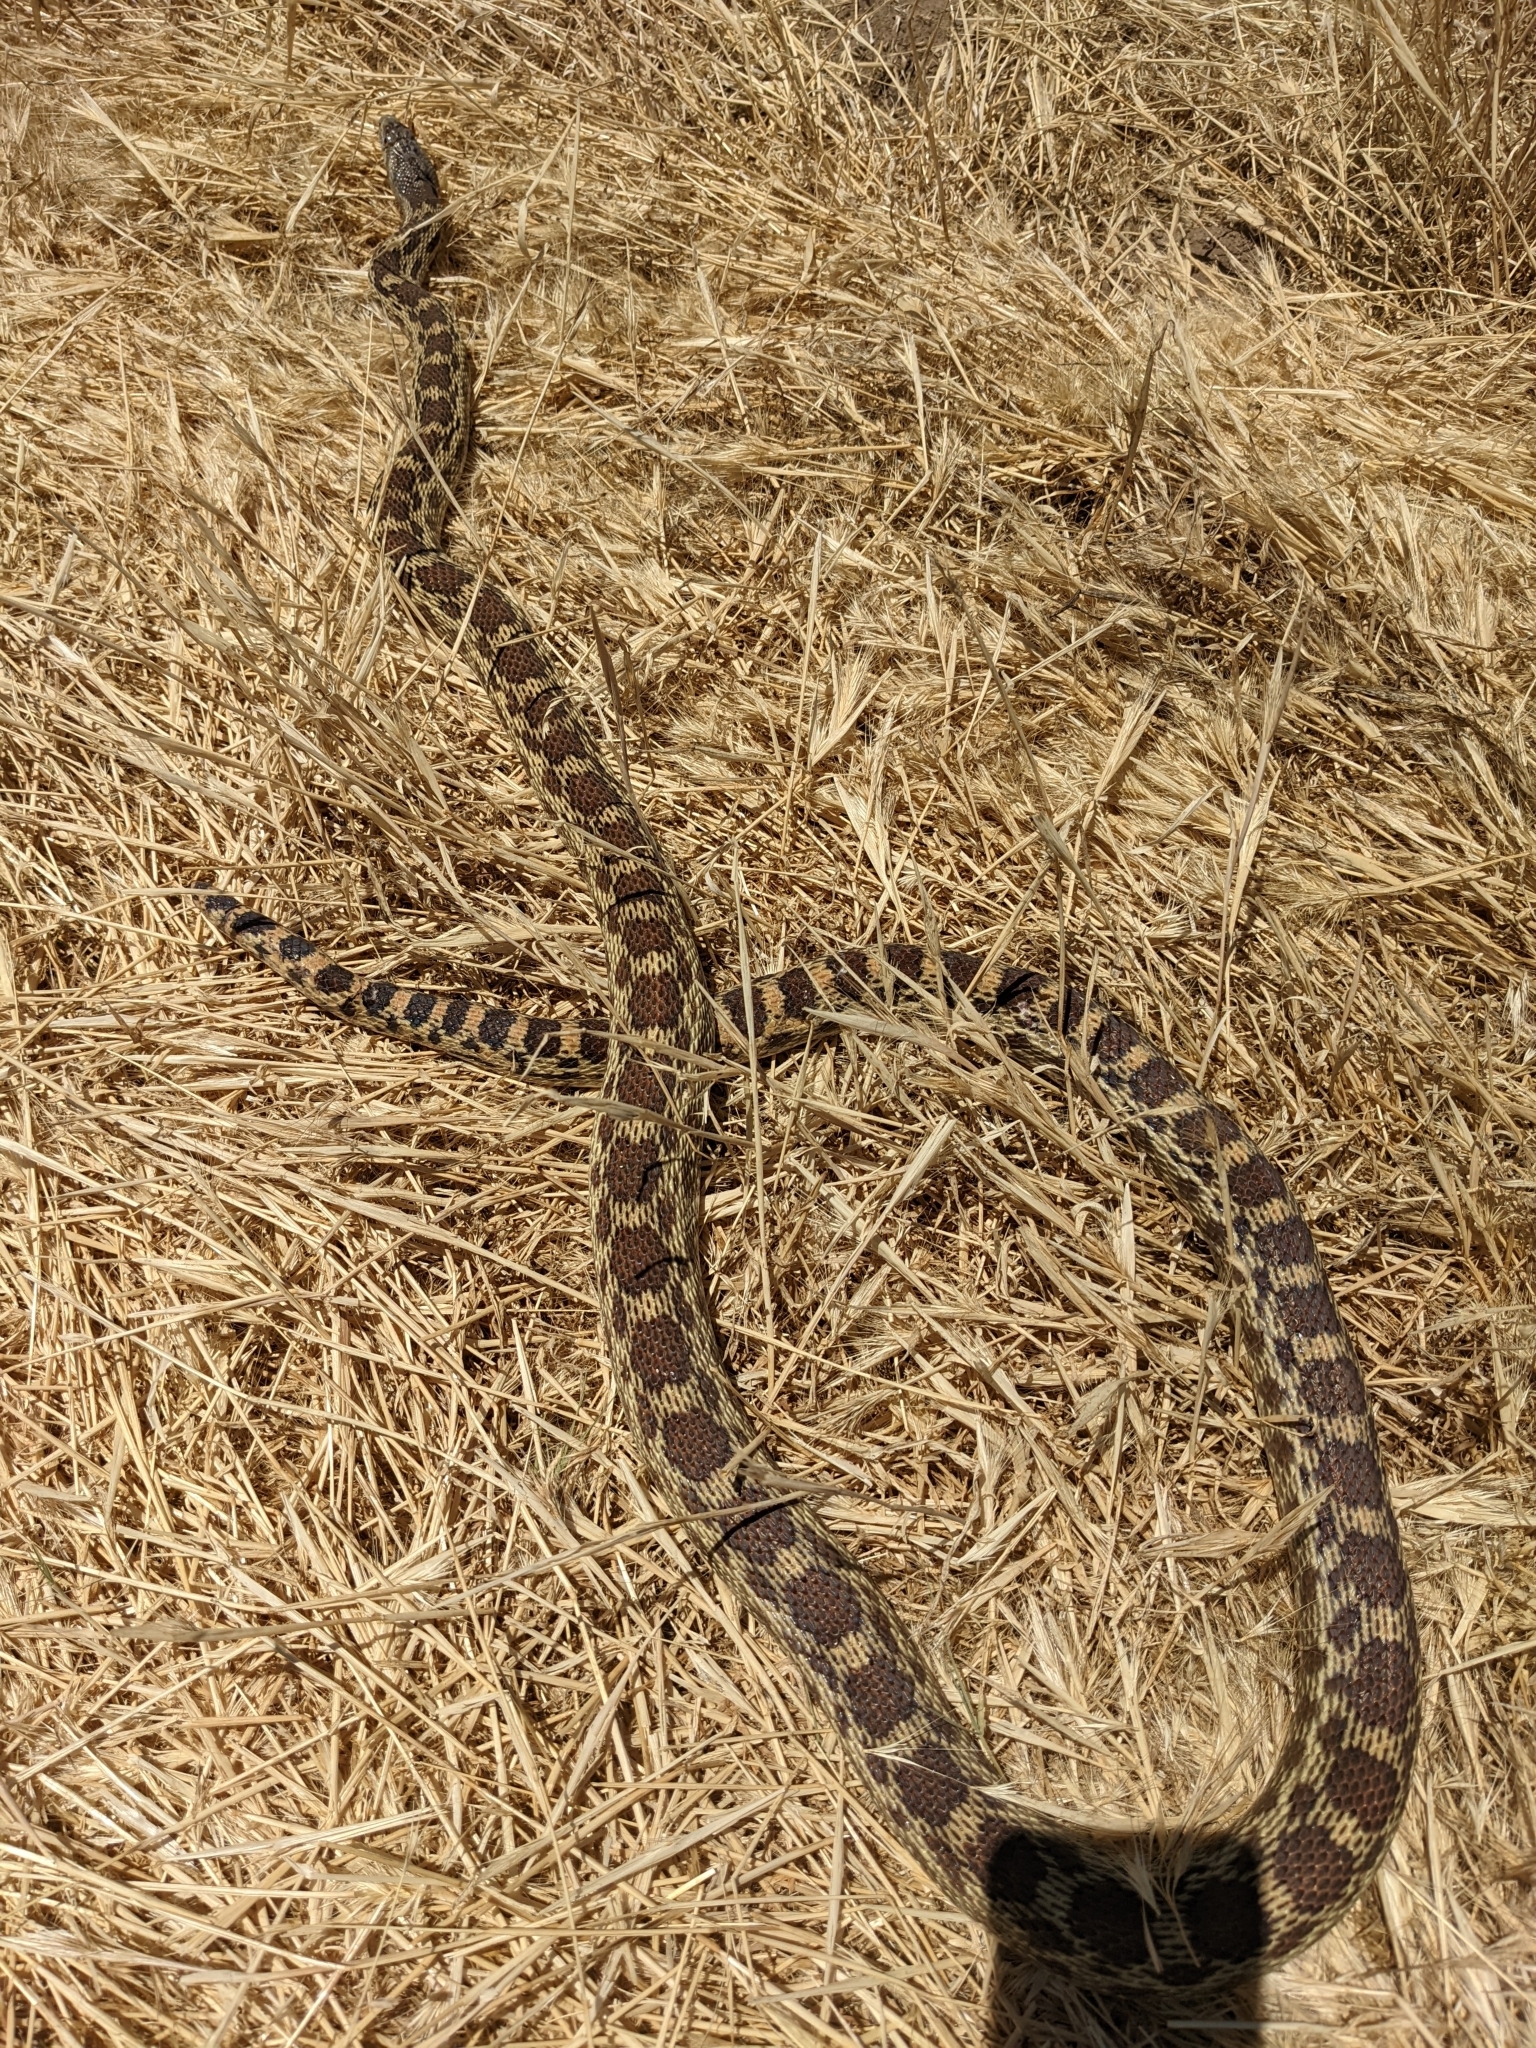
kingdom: Animalia
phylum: Chordata
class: Squamata
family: Colubridae
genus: Pituophis
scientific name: Pituophis catenifer
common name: Gopher snake
